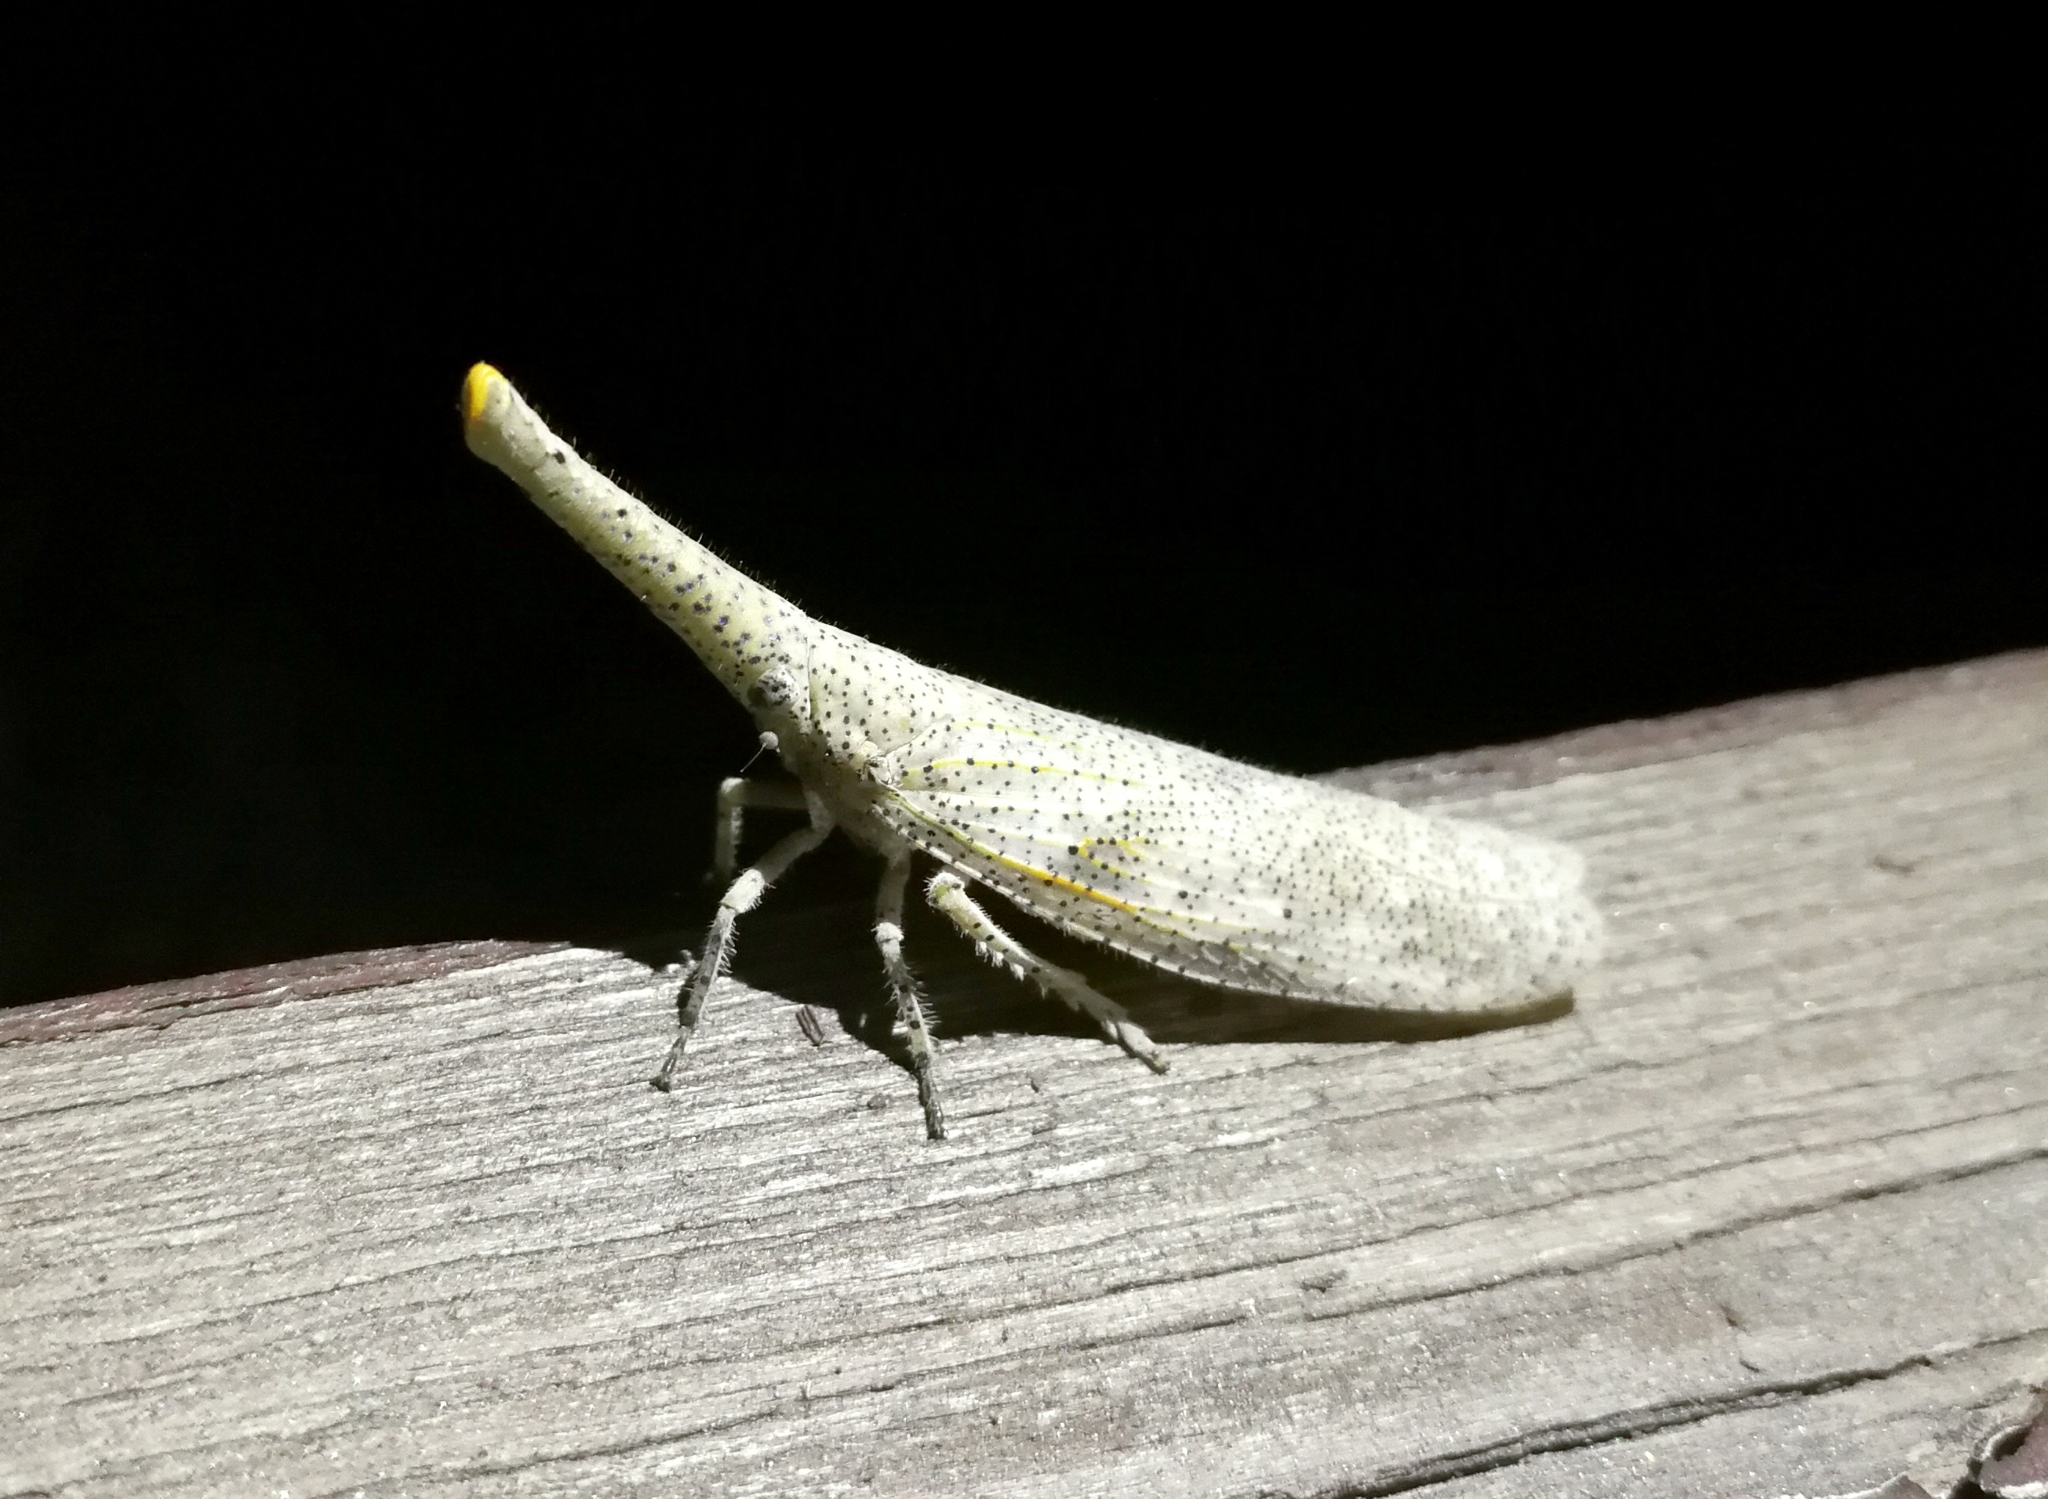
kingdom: Animalia
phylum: Arthropoda
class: Insecta
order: Hemiptera
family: Fulgoridae
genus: Zanna
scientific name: Zanna chinensis
